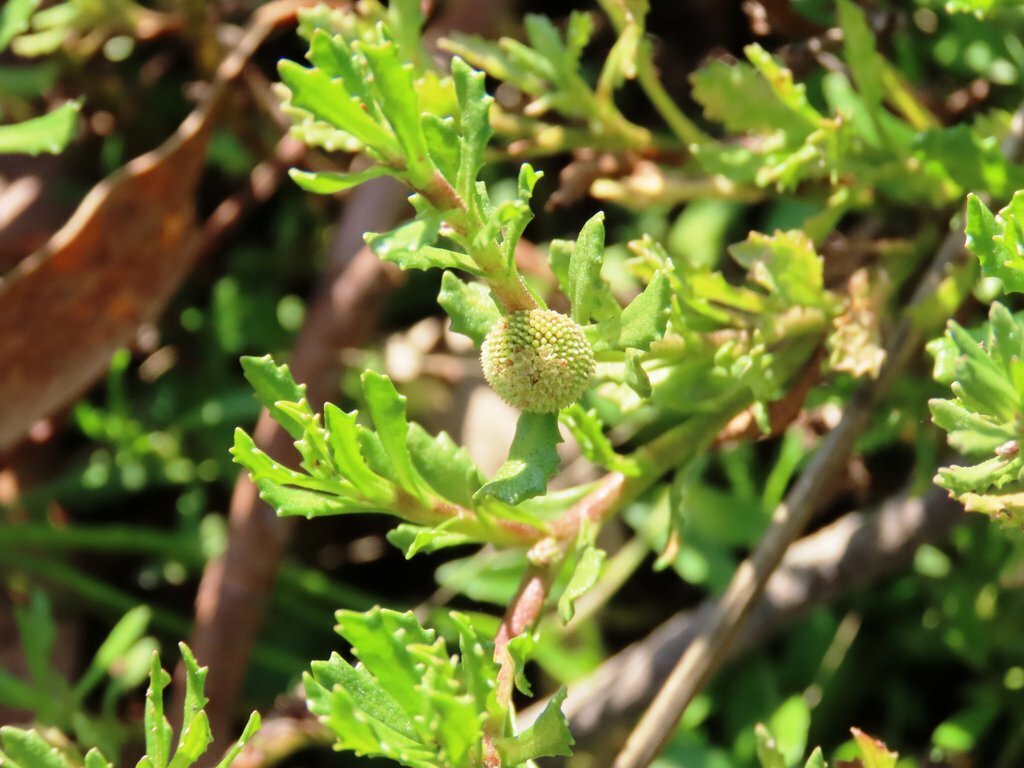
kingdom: Plantae
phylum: Tracheophyta
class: Magnoliopsida
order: Asterales
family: Asteraceae
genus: Centipeda
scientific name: Centipeda cunninghamii
